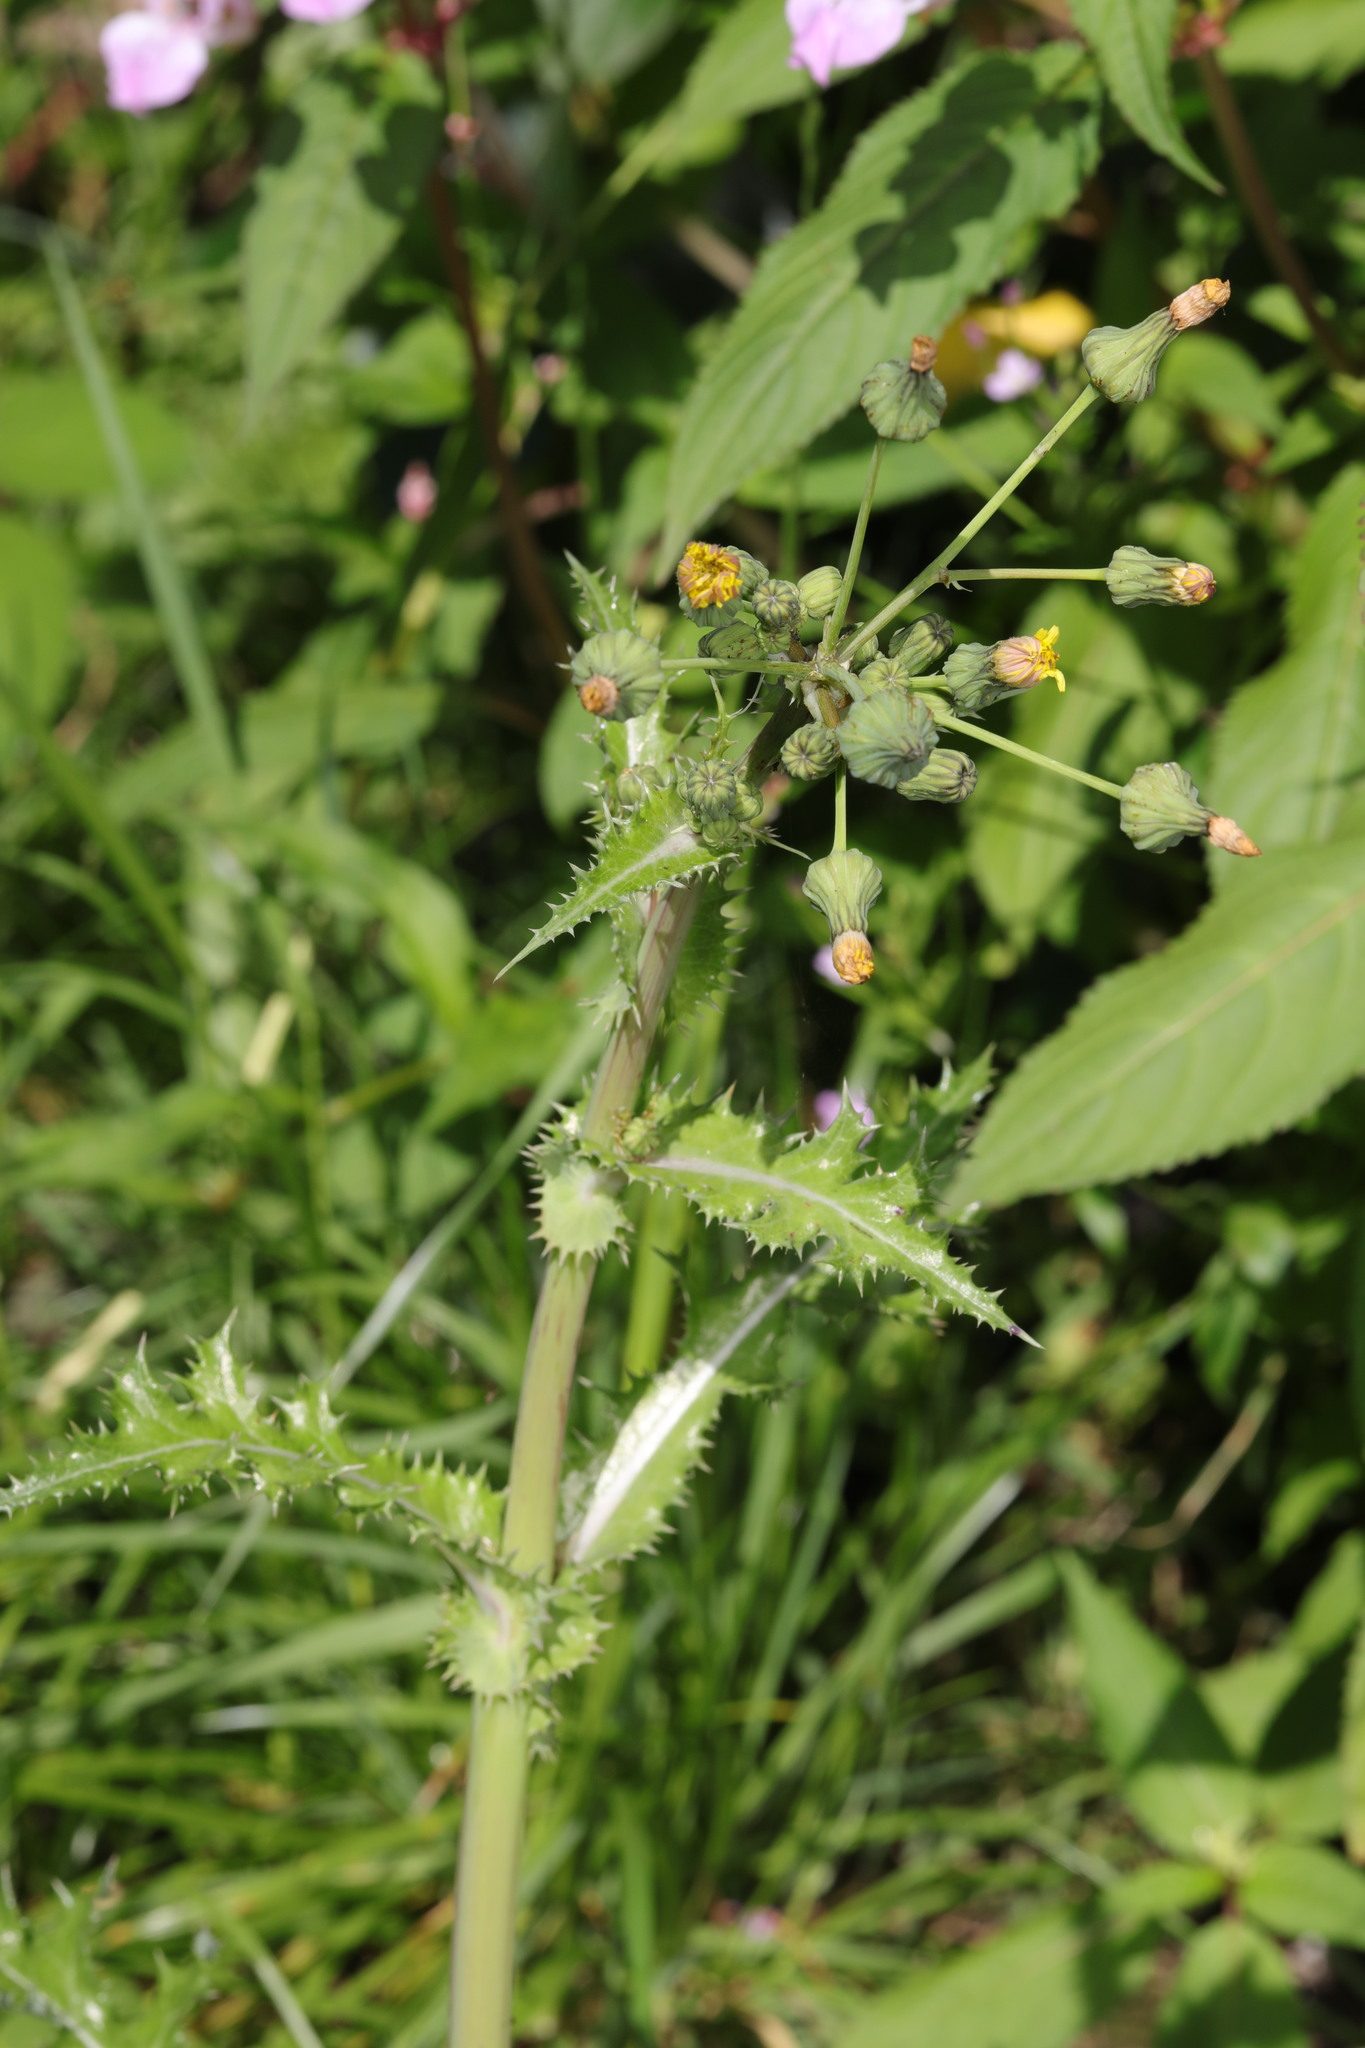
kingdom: Plantae
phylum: Tracheophyta
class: Magnoliopsida
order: Asterales
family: Asteraceae
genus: Sonchus
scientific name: Sonchus asper
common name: Prickly sow-thistle
